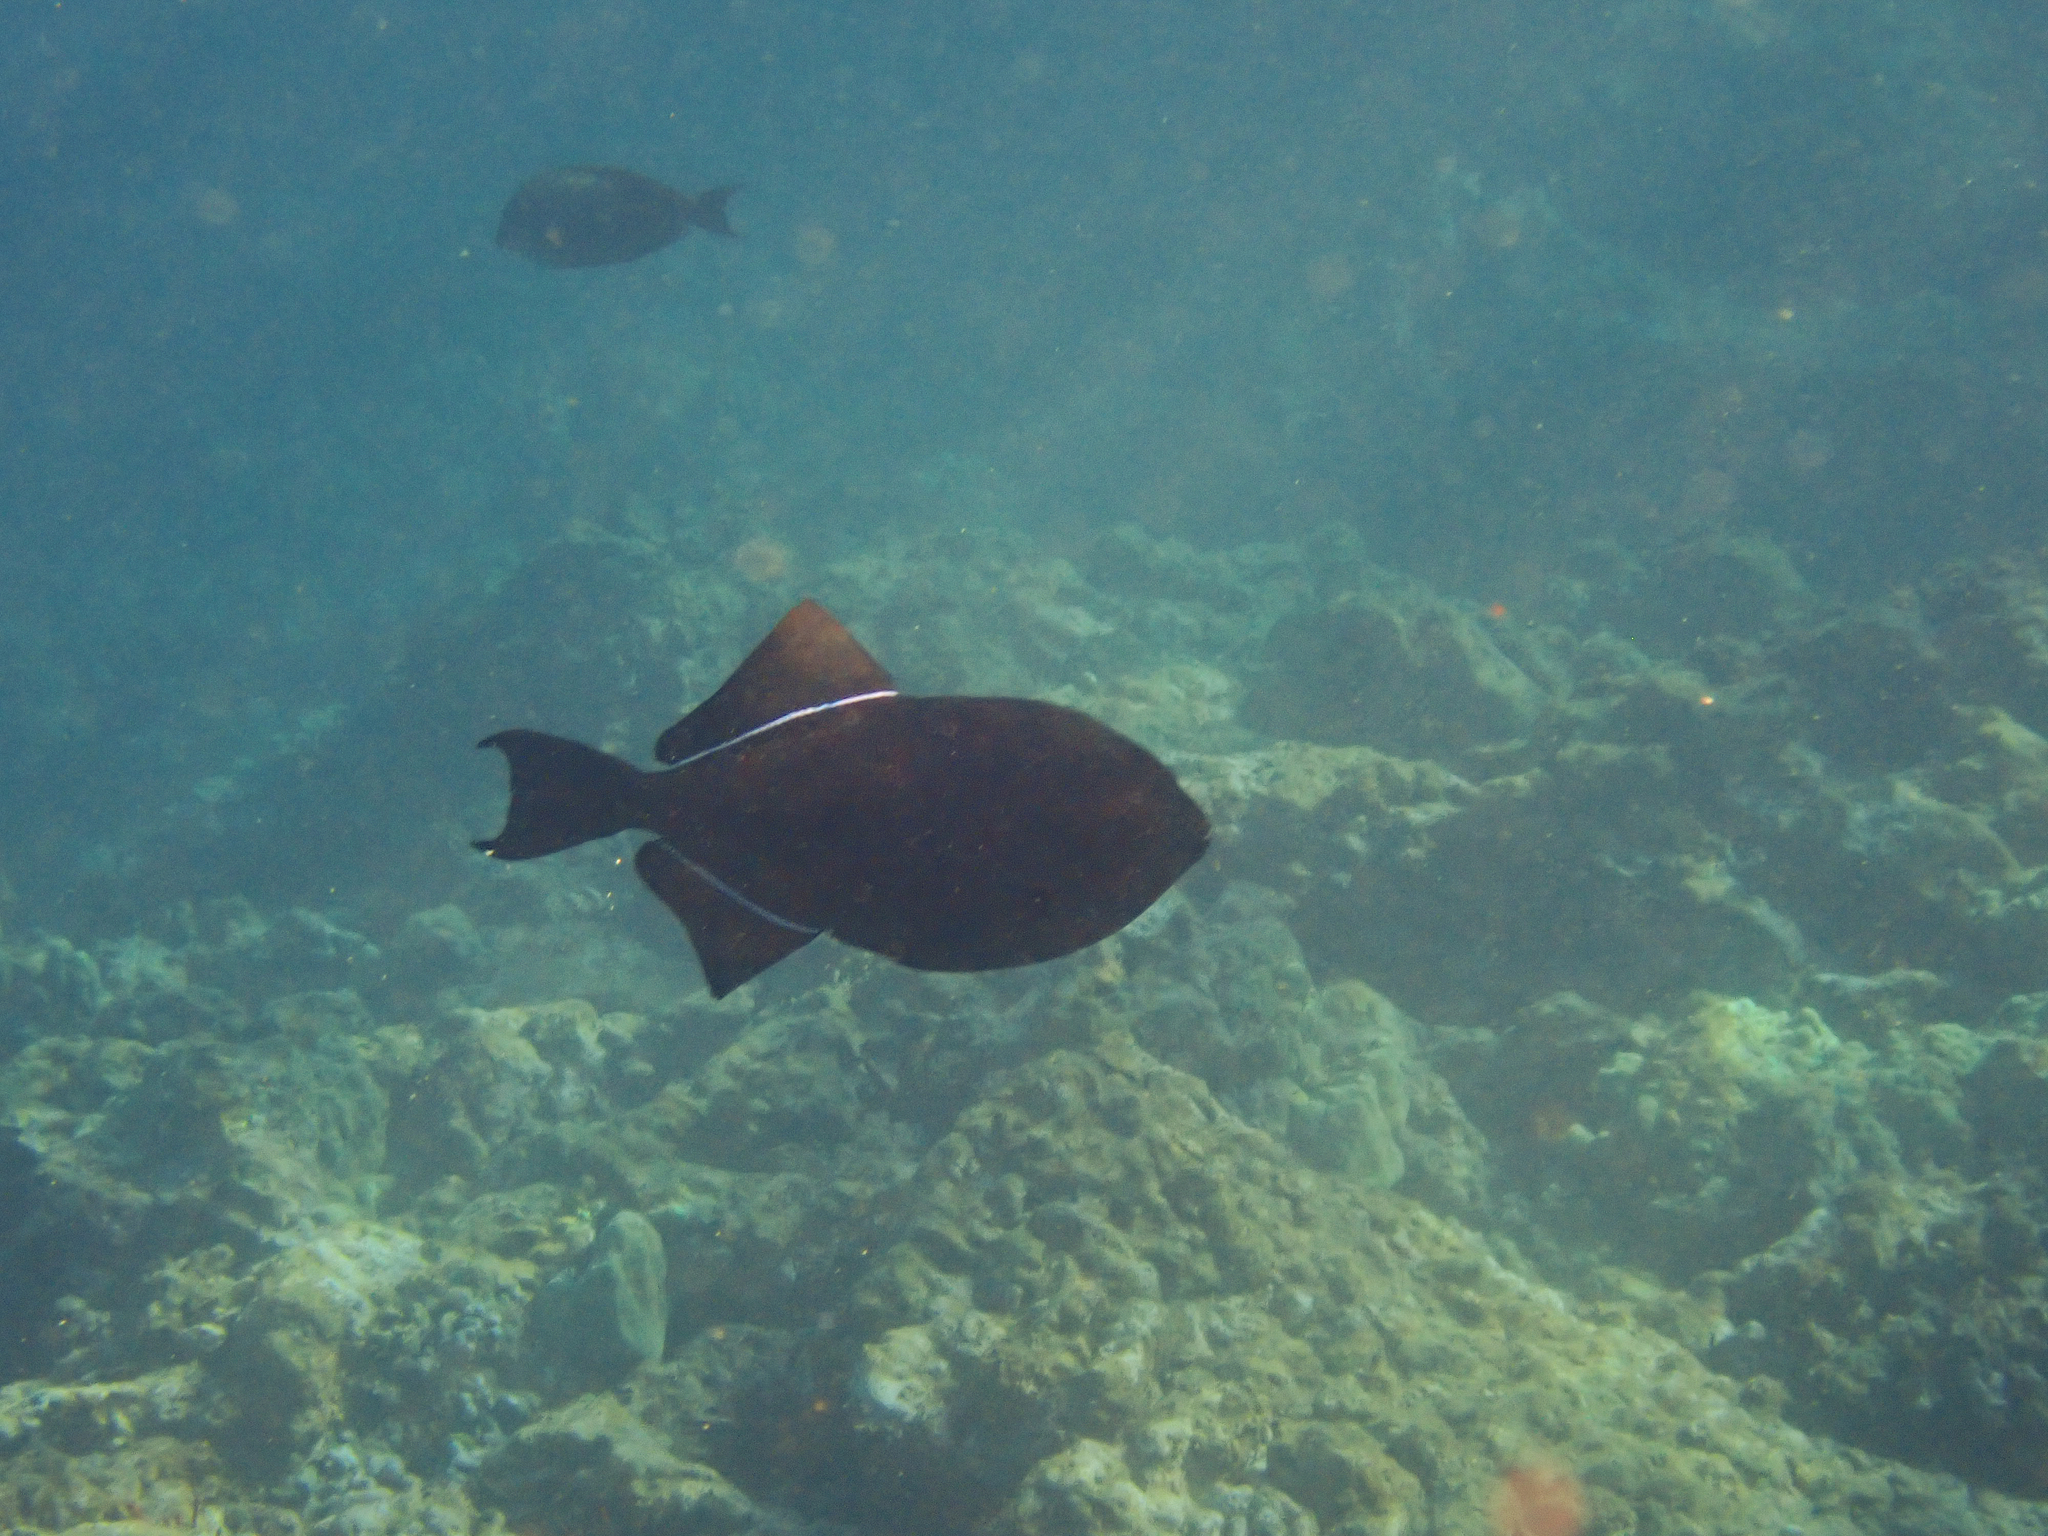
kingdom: Animalia
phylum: Chordata
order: Tetraodontiformes
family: Balistidae
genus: Melichthys
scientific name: Melichthys niger
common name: Black durgon
